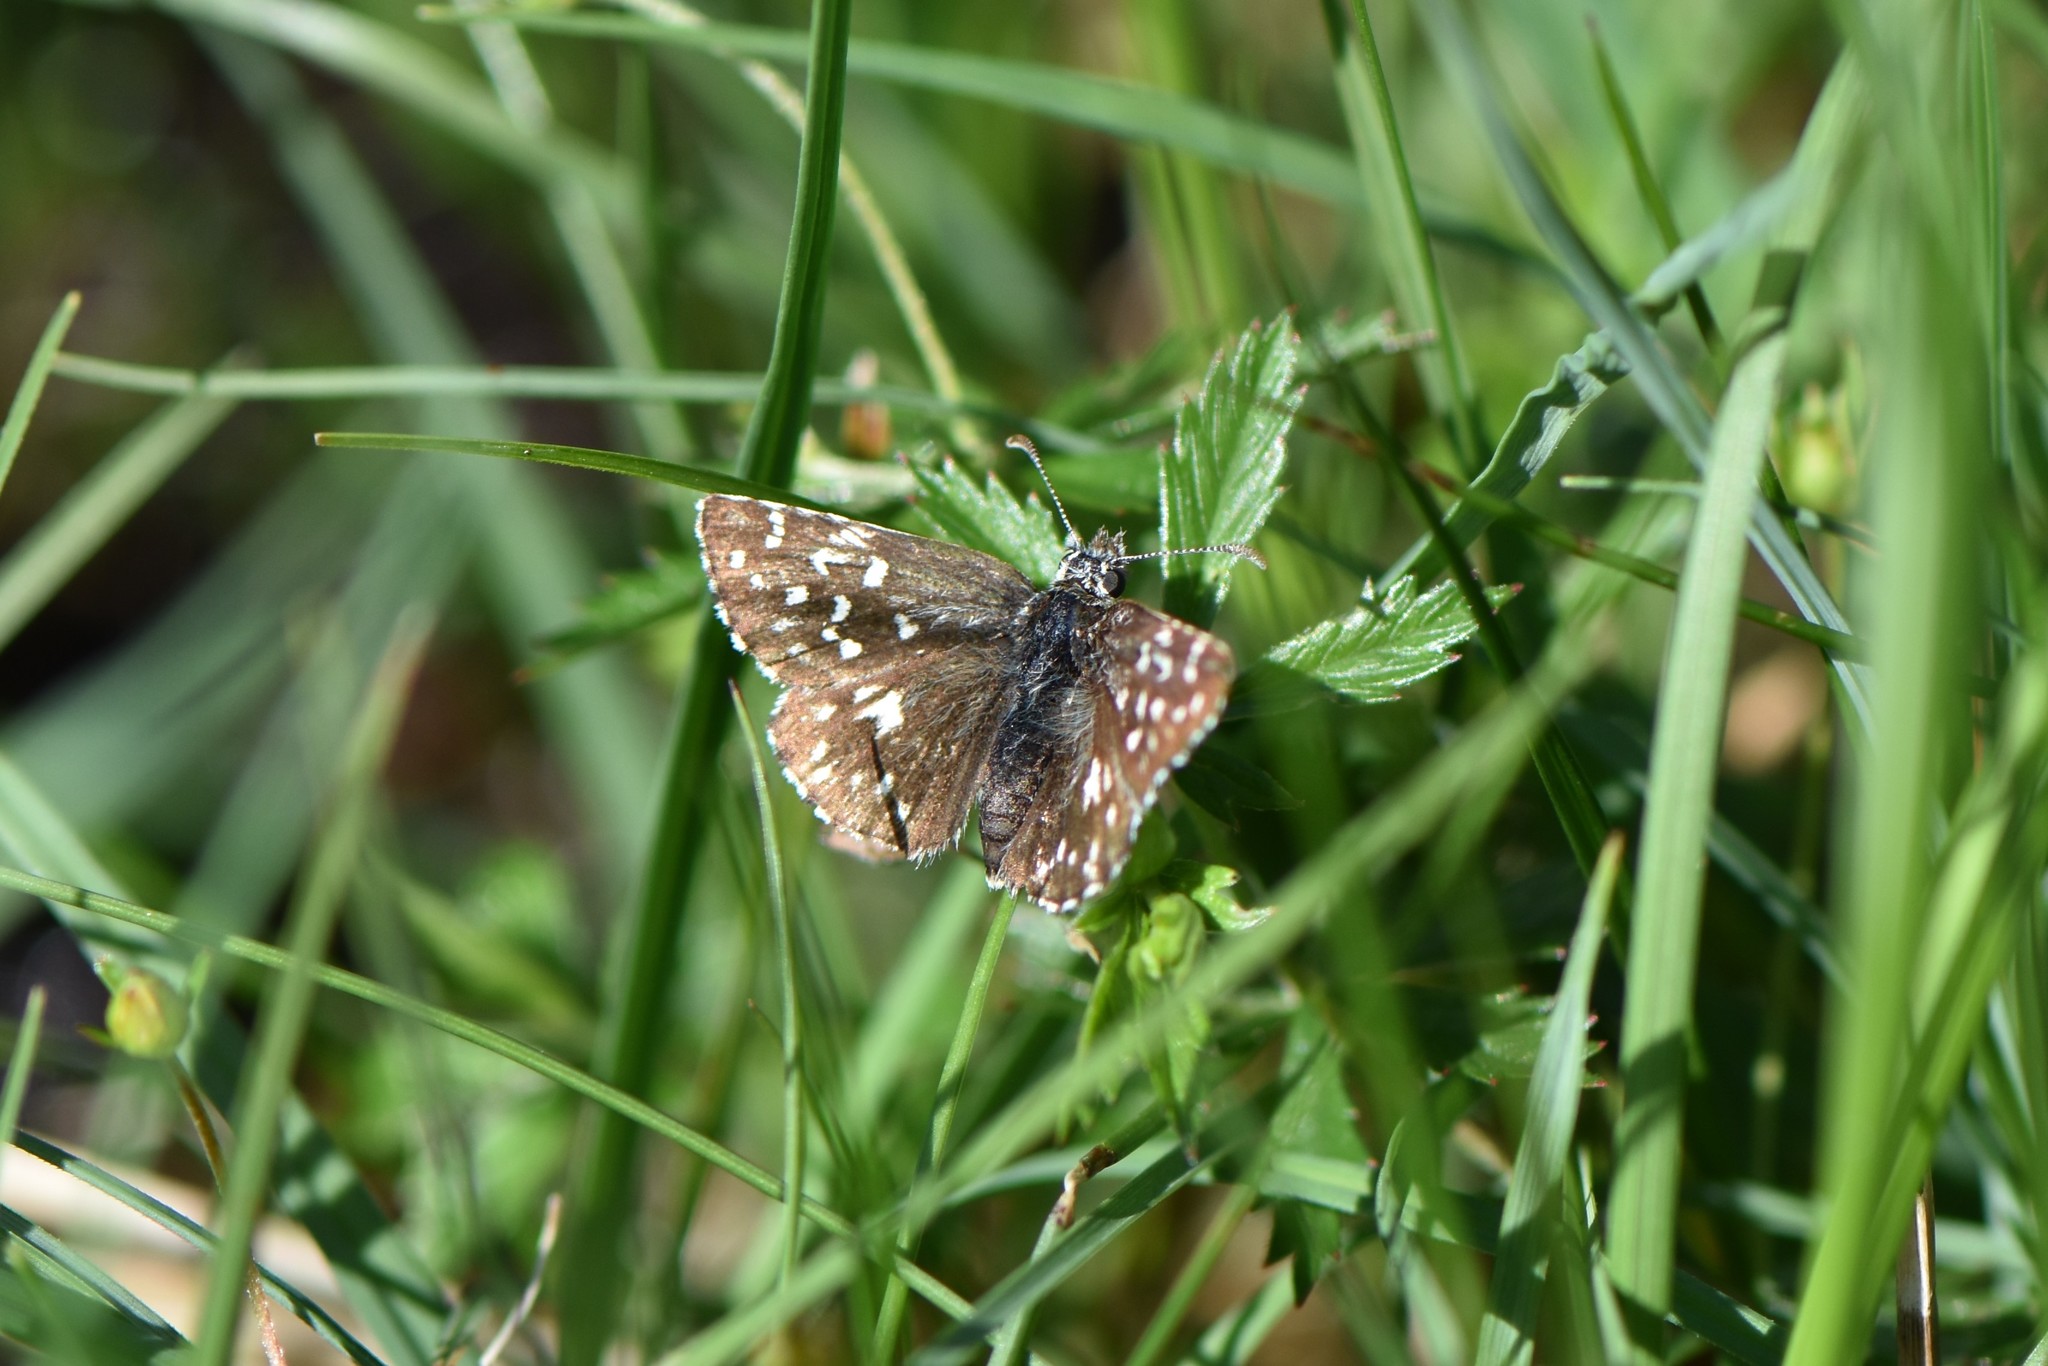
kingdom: Animalia
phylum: Arthropoda
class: Insecta
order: Lepidoptera
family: Hesperiidae
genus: Pyrgus
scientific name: Pyrgus malvae
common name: Grizzled skipper
